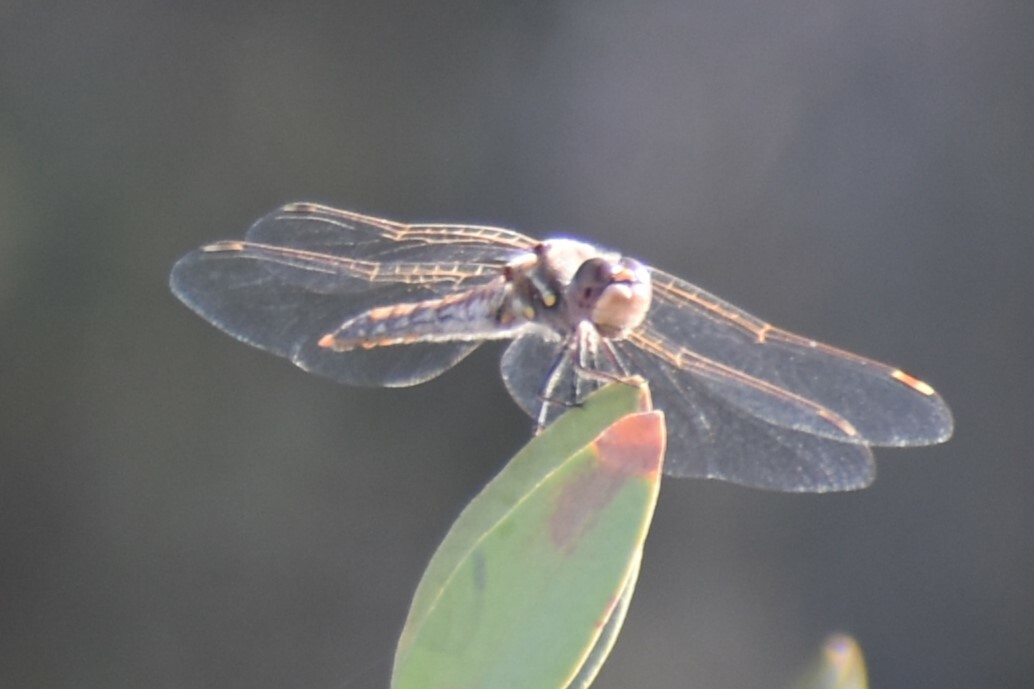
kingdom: Animalia
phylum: Arthropoda
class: Insecta
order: Odonata
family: Libellulidae
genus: Sympetrum
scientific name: Sympetrum corruptum
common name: Variegated meadowhawk
